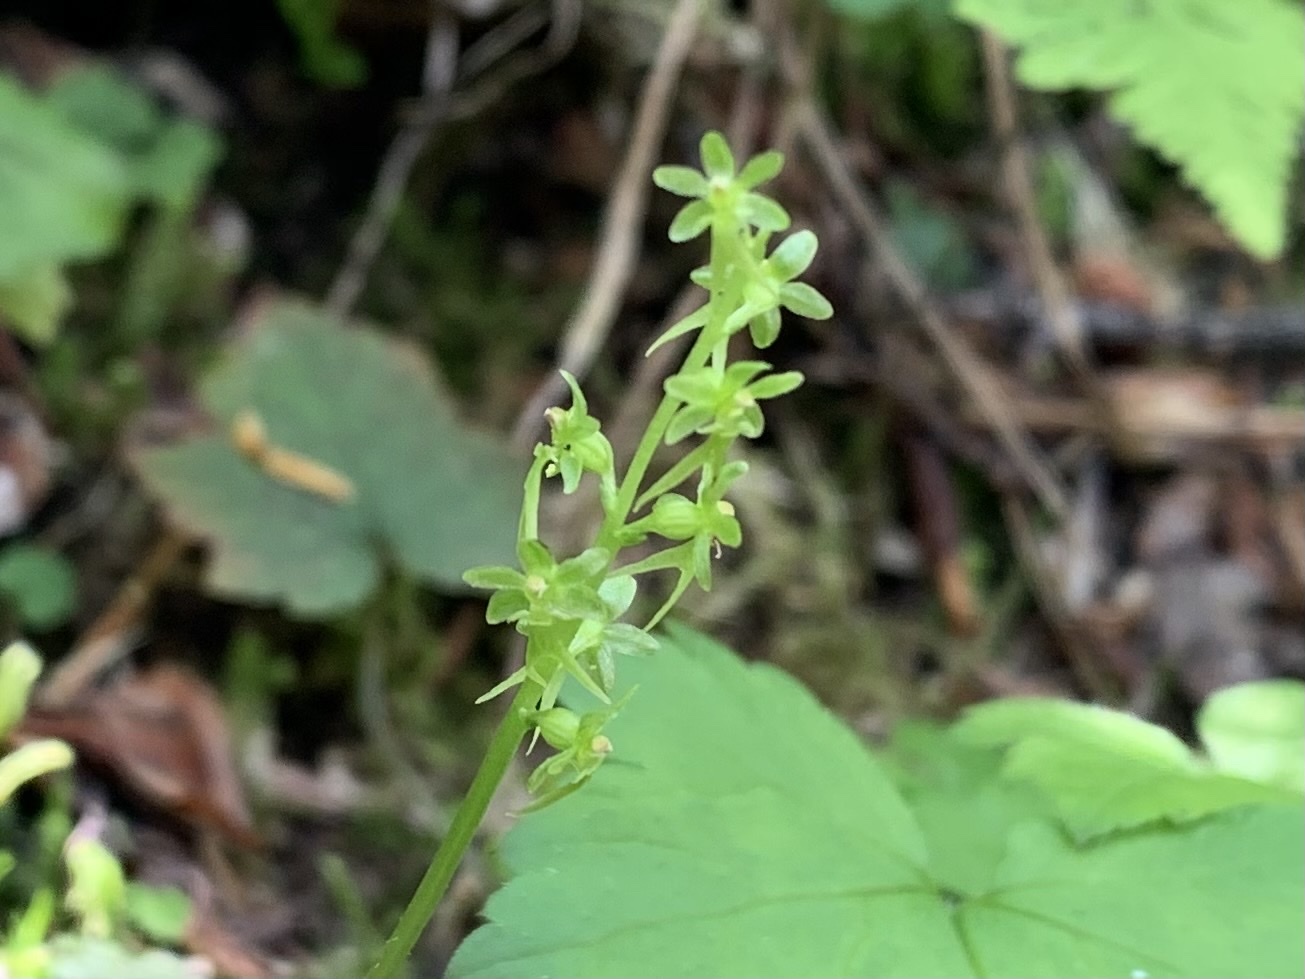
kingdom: Plantae
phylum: Tracheophyta
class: Liliopsida
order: Asparagales
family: Orchidaceae
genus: Neottia
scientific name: Neottia cordata
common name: Lesser twayblade
